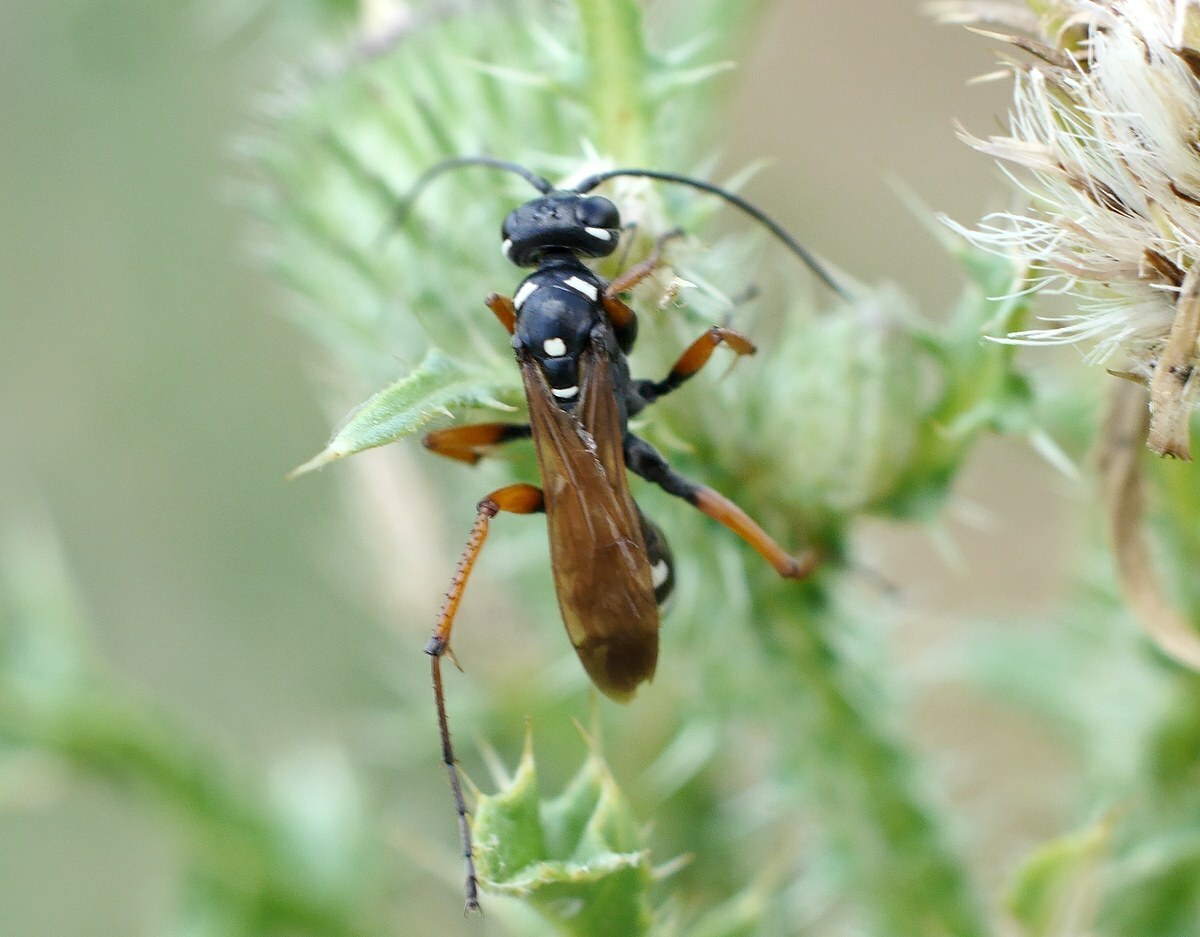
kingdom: Animalia
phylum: Arthropoda
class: Insecta
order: Hymenoptera
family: Pompilidae
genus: Cryptocheilus
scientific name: Cryptocheilus variabilis
